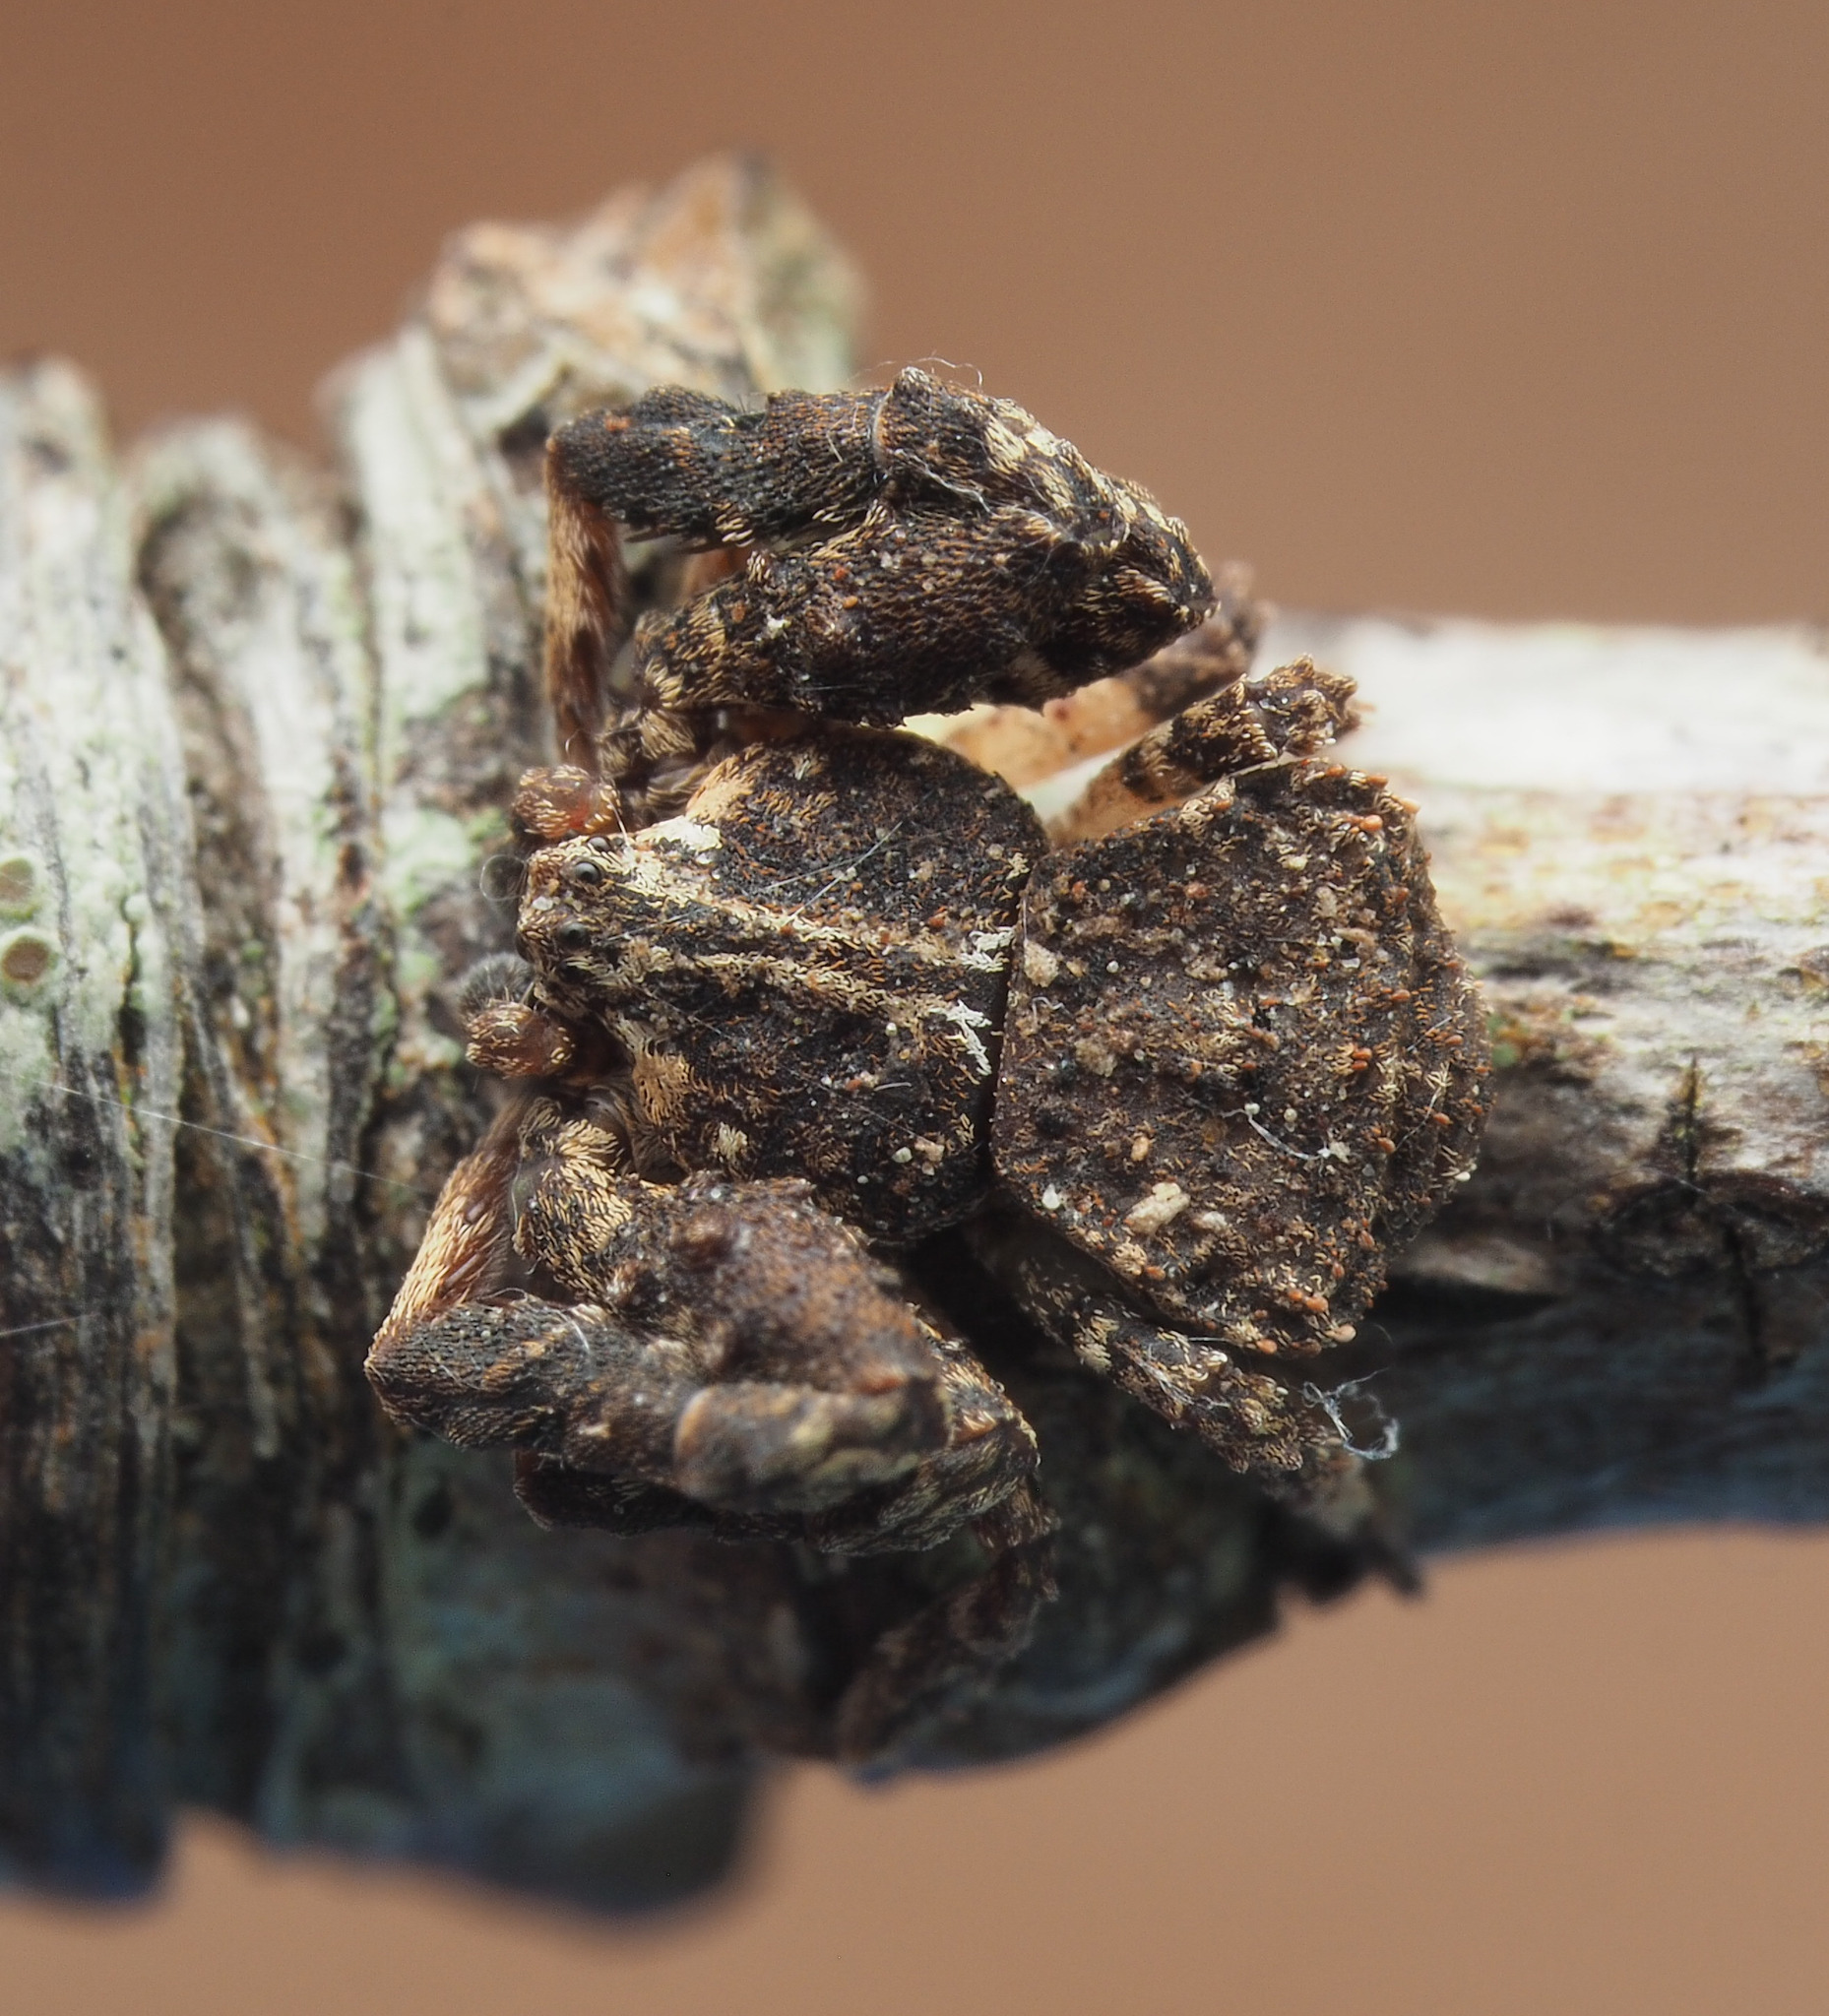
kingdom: Animalia
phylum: Arthropoda
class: Arachnida
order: Araneae
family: Thomisidae
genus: Stephanopis
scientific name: Stephanopis armata
